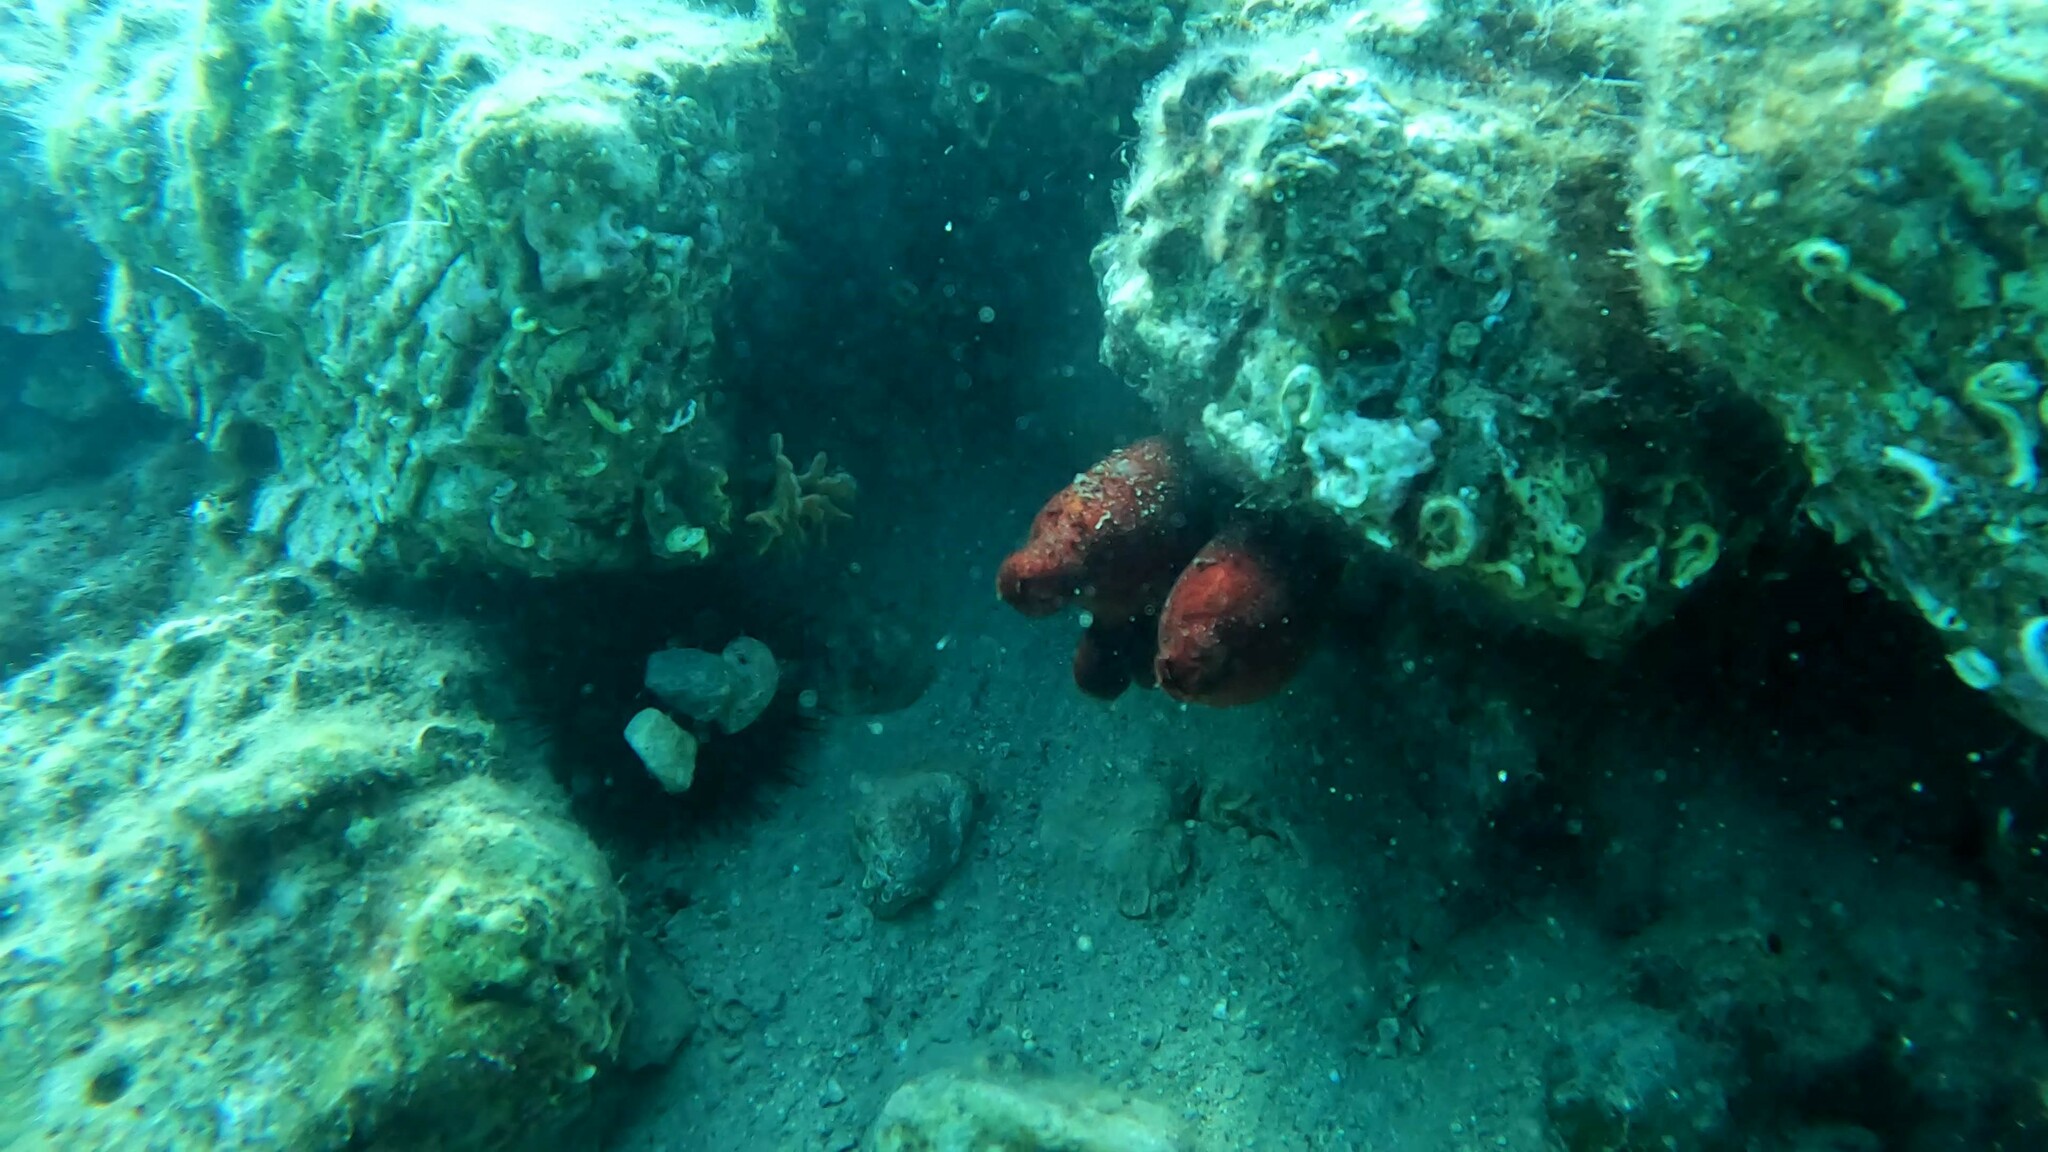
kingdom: Animalia
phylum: Chordata
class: Ascidiacea
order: Stolidobranchia
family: Pyuridae
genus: Halocynthia
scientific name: Halocynthia papillosa
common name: Red sea-squirt
